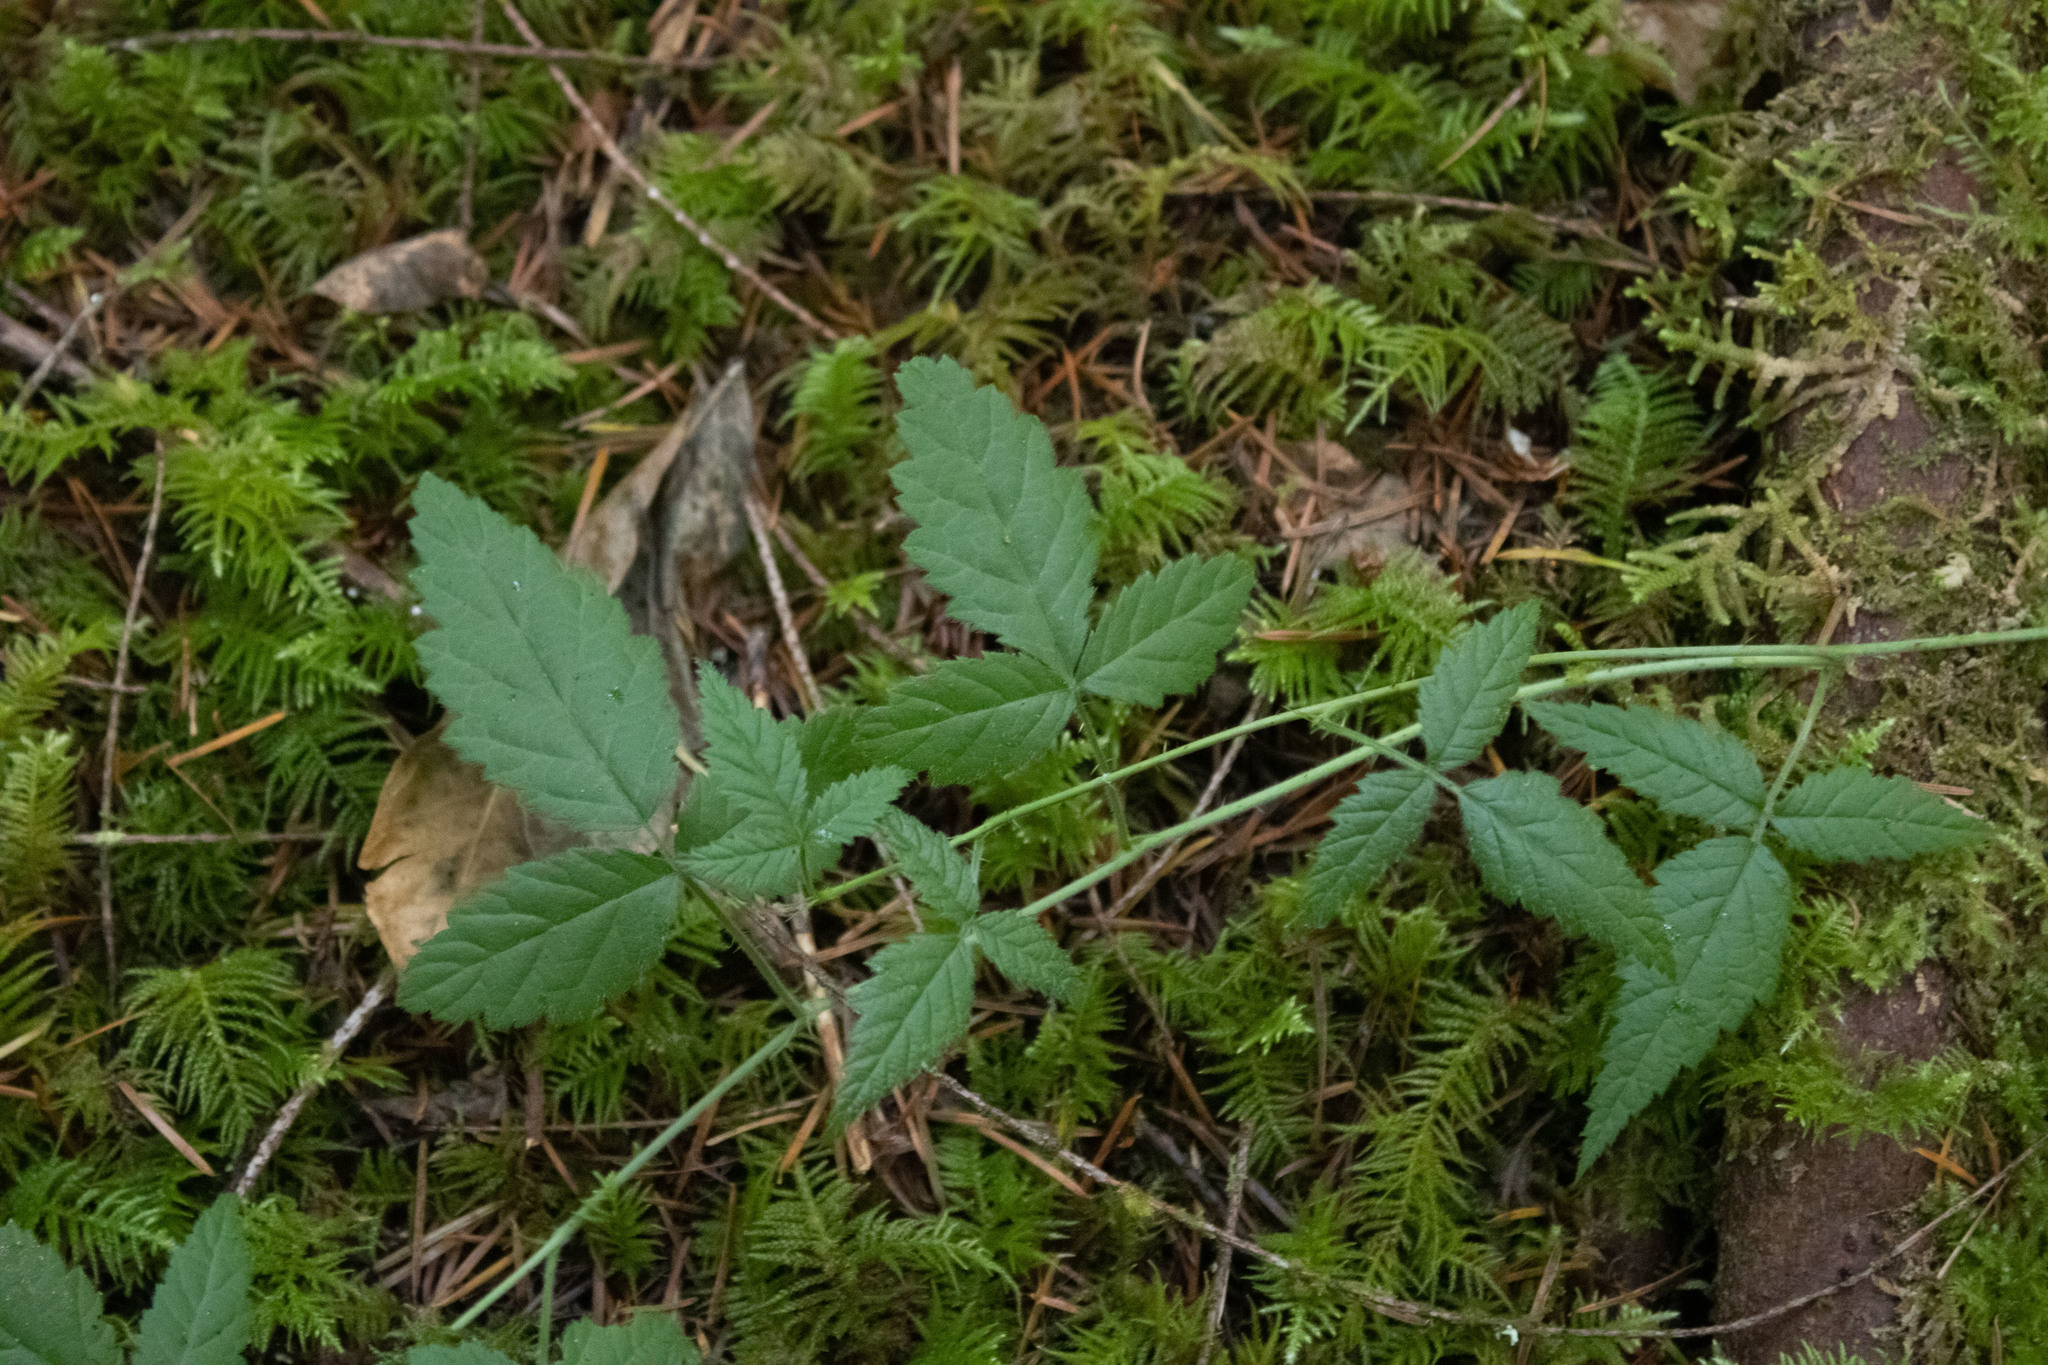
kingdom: Plantae
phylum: Tracheophyta
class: Magnoliopsida
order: Rosales
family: Rosaceae
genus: Rubus
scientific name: Rubus ursinus
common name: Pacific blackberry
